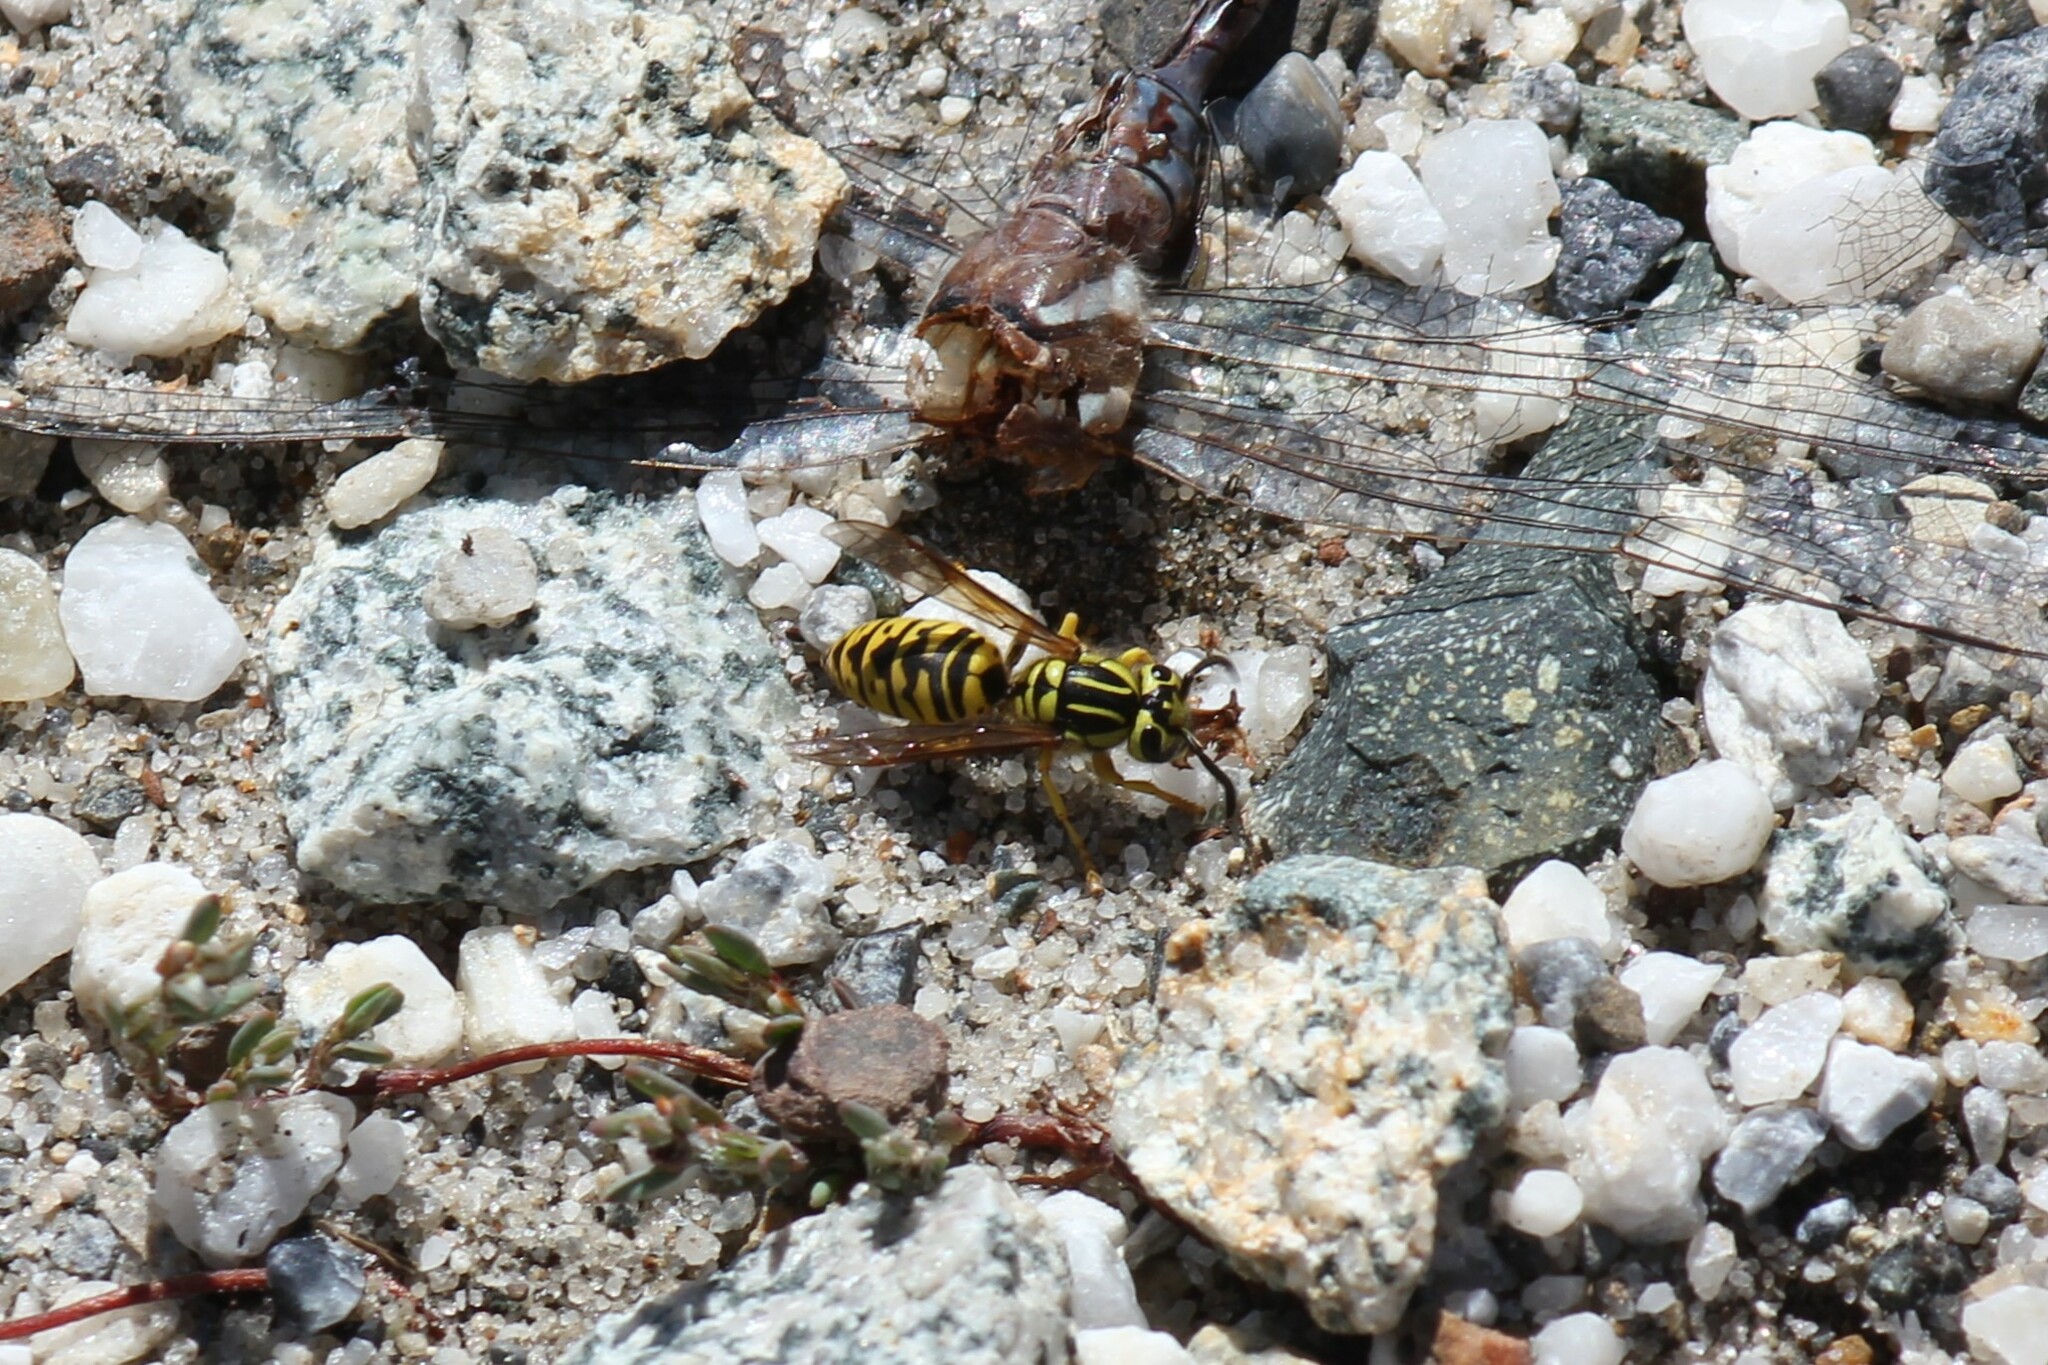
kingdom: Animalia
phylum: Arthropoda
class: Insecta
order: Hymenoptera
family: Vespidae
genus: Vespula
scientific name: Vespula sulphurea
